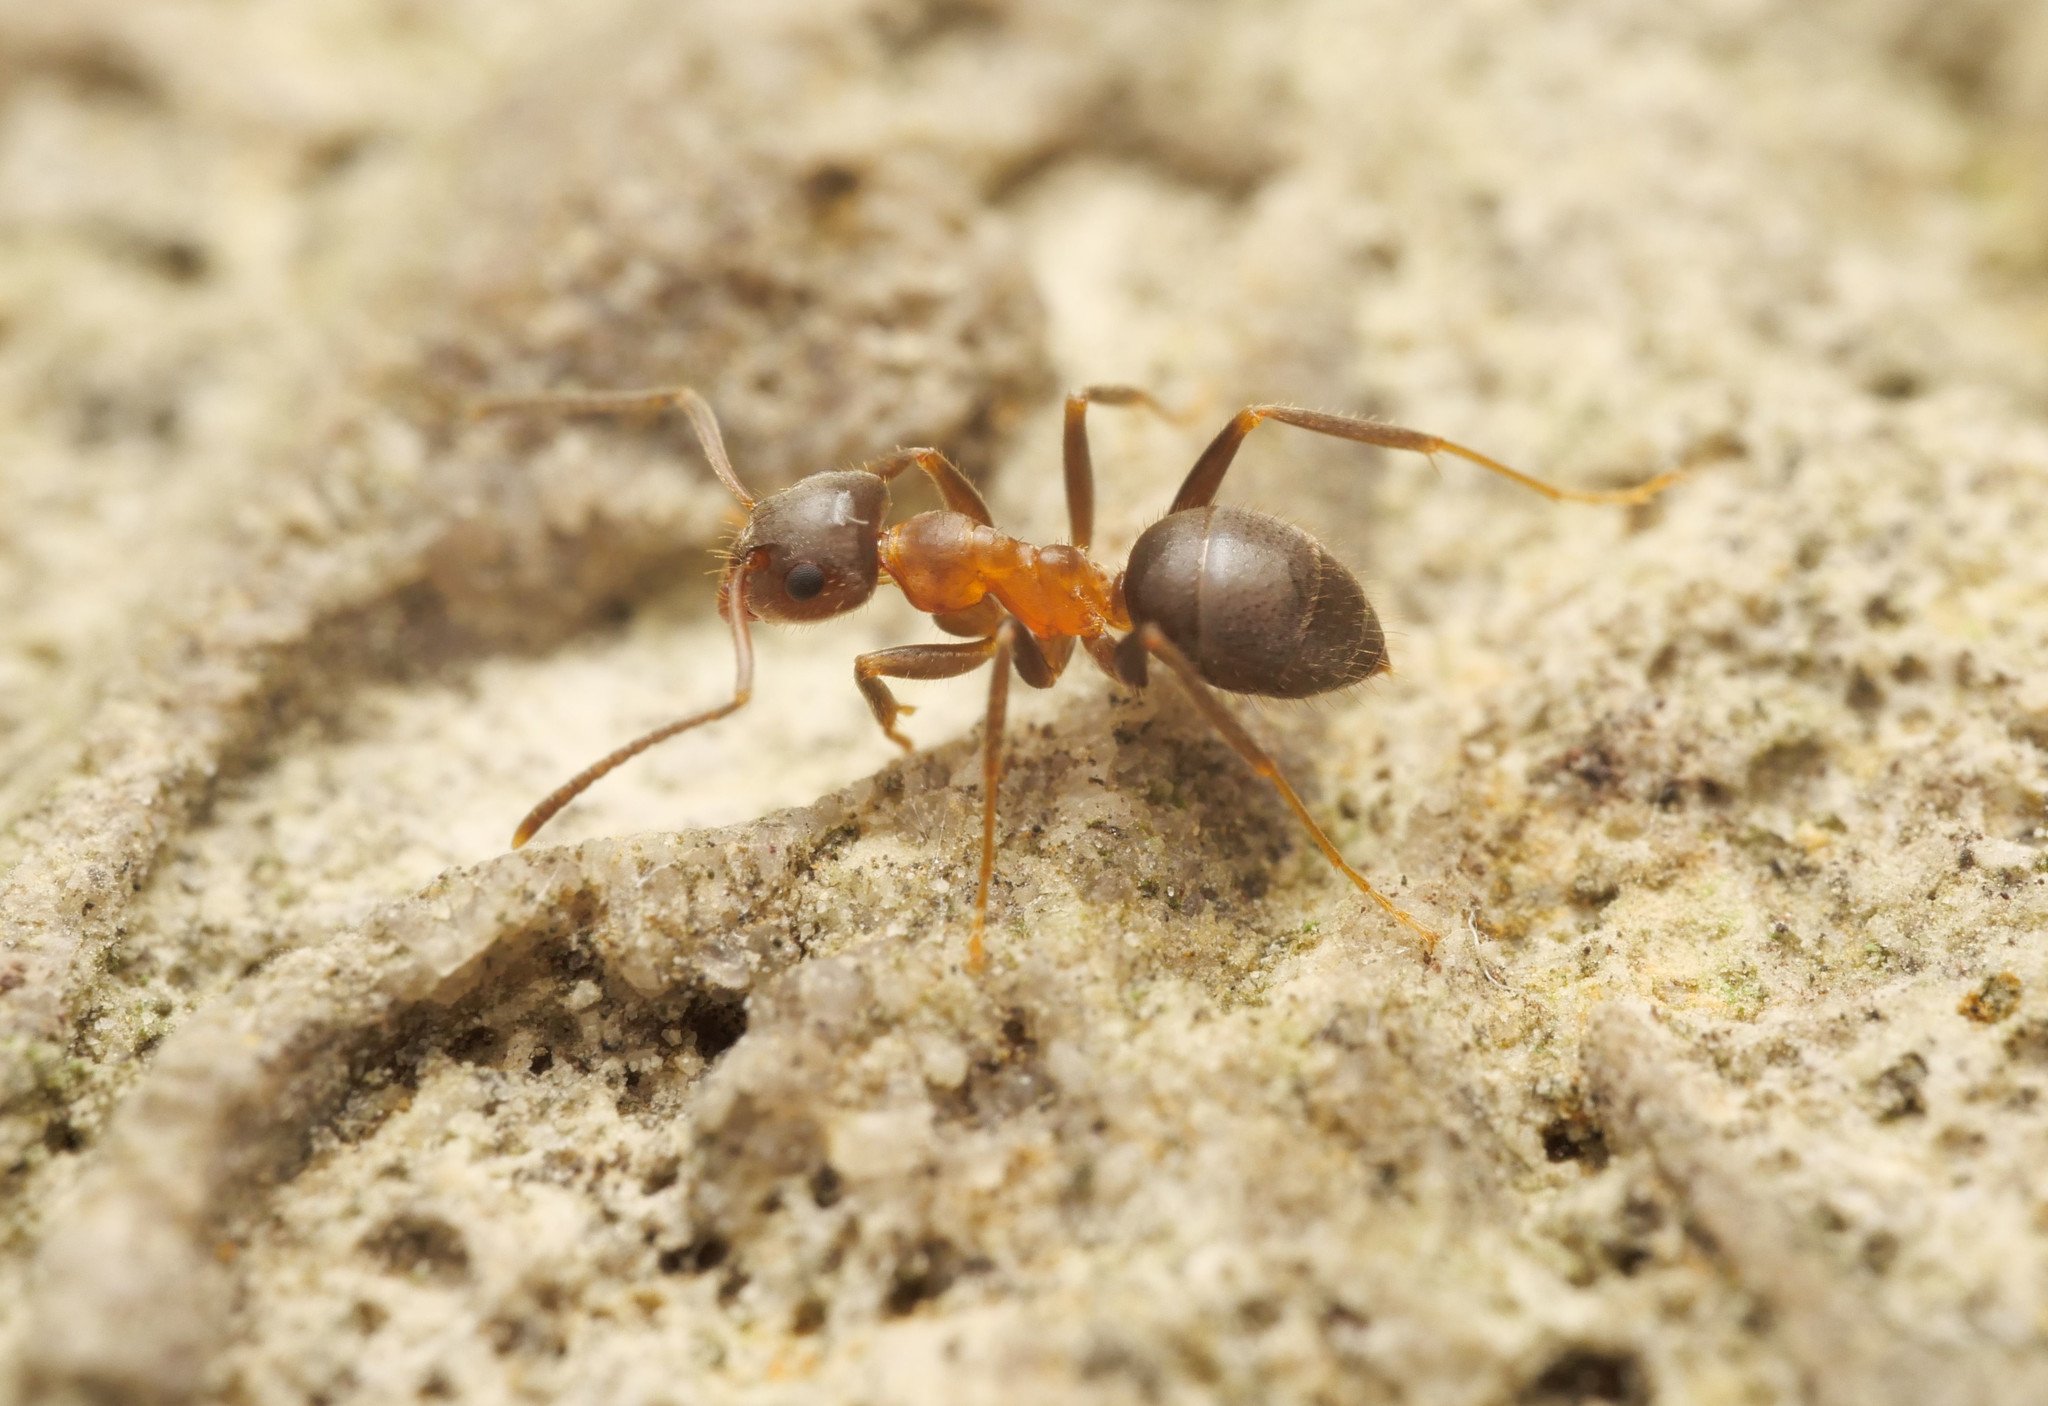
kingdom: Animalia
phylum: Arthropoda
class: Insecta
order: Hymenoptera
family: Formicidae
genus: Lasius
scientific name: Lasius emarginatus
